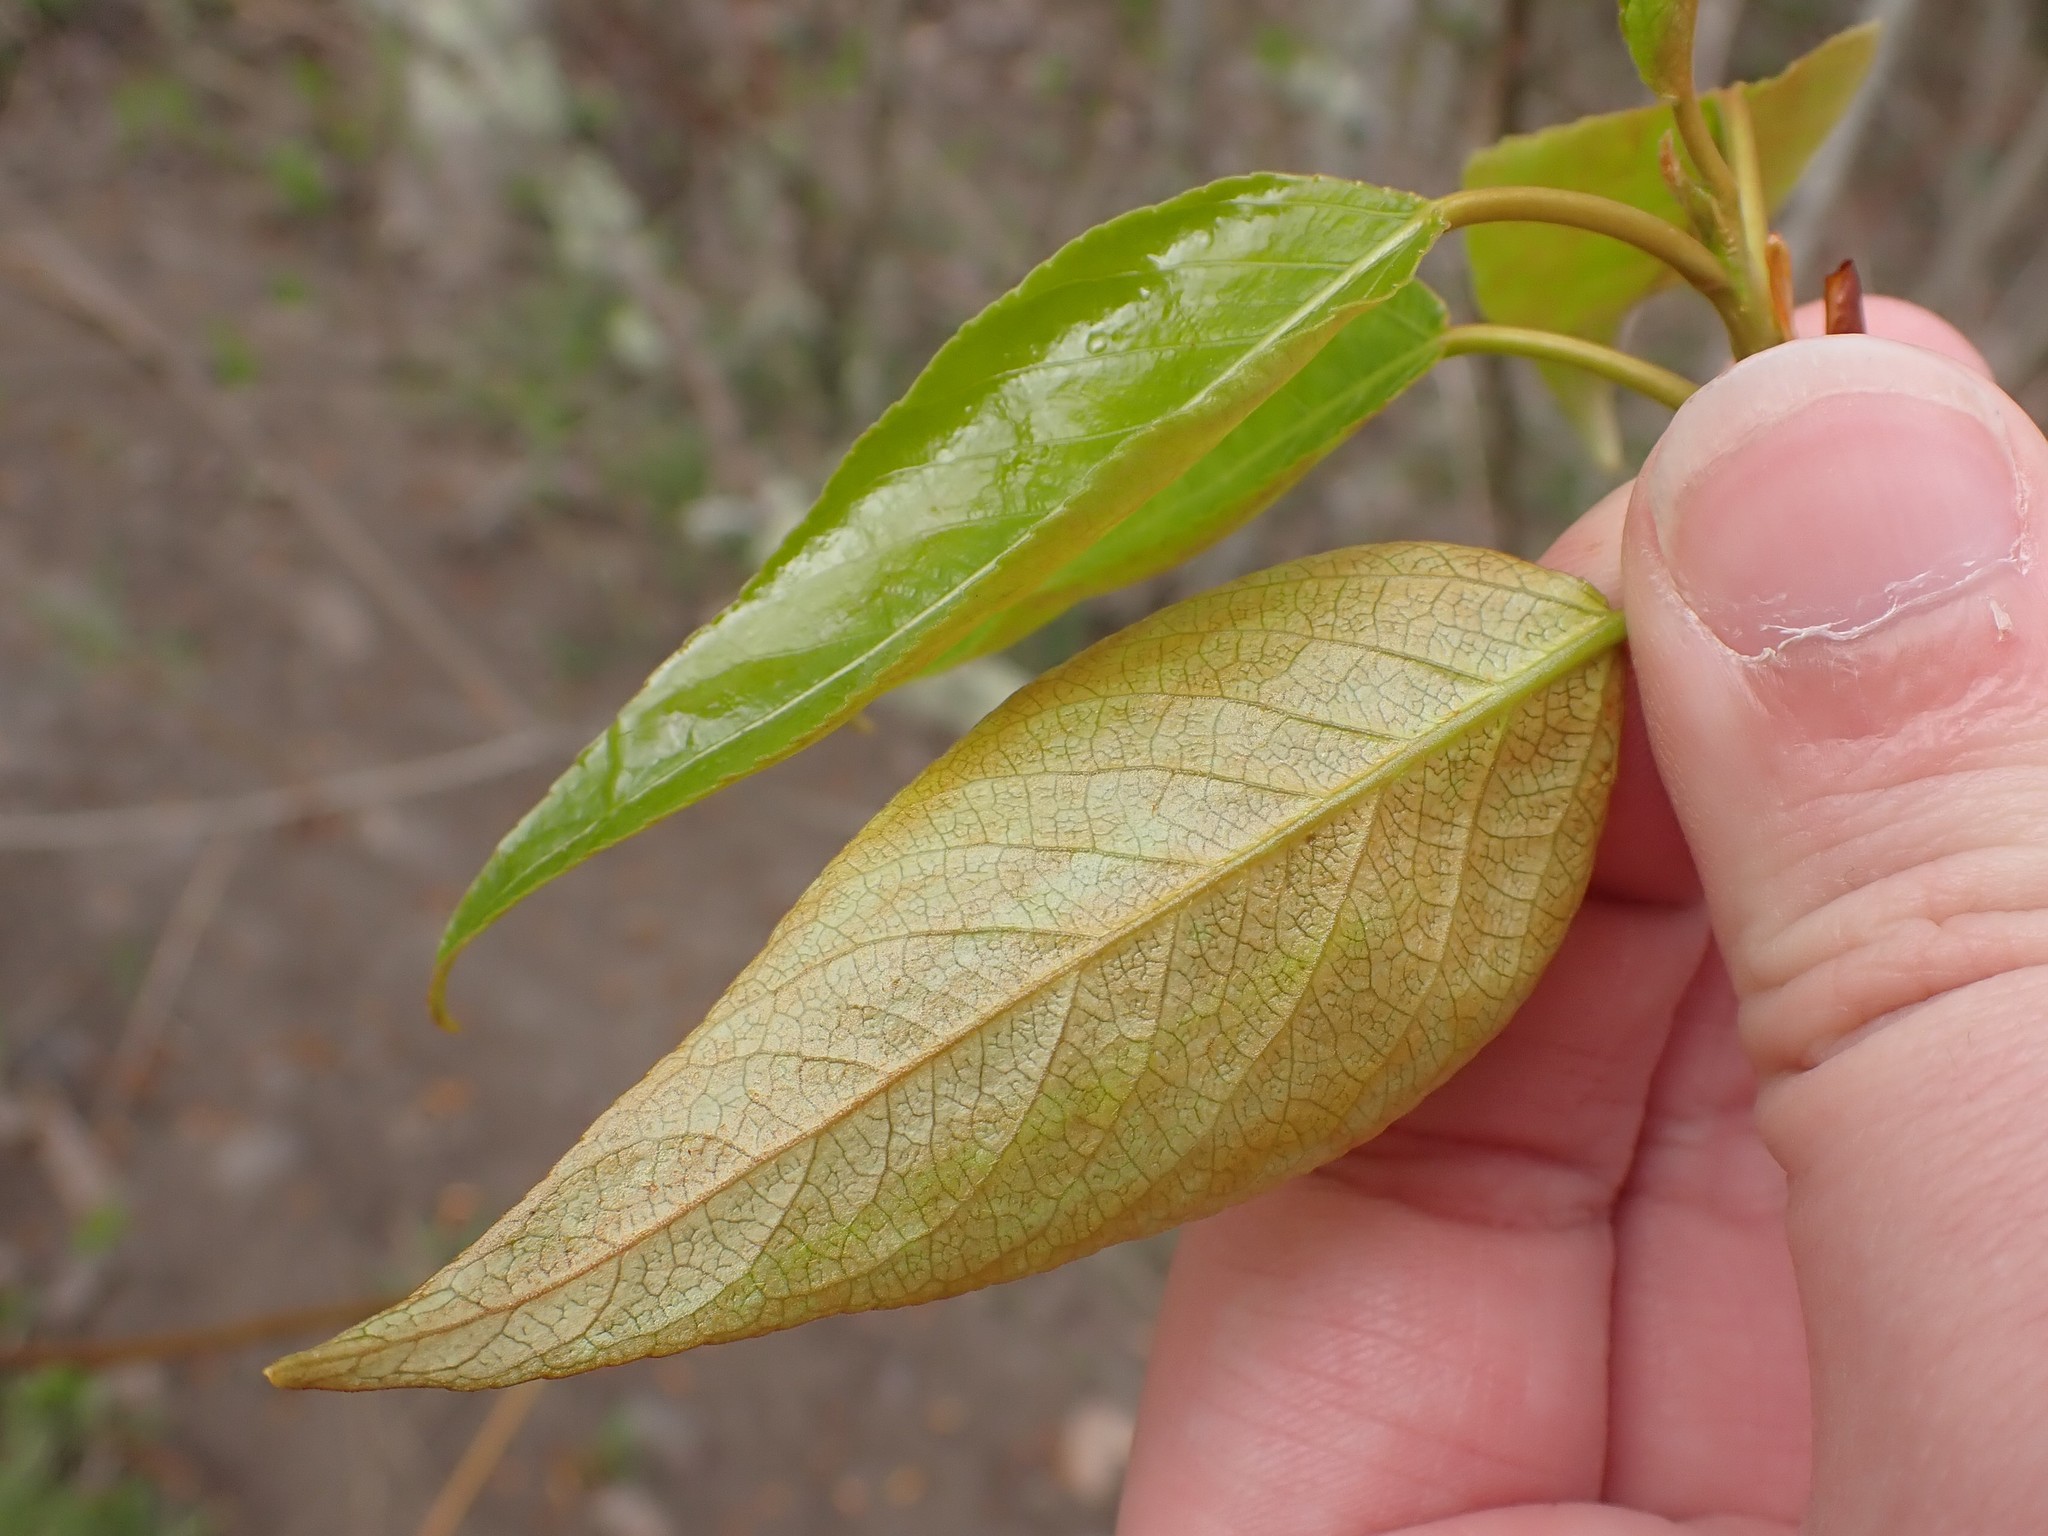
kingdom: Plantae
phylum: Tracheophyta
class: Magnoliopsida
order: Malpighiales
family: Salicaceae
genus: Populus
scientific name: Populus trichocarpa
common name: Black cottonwood
